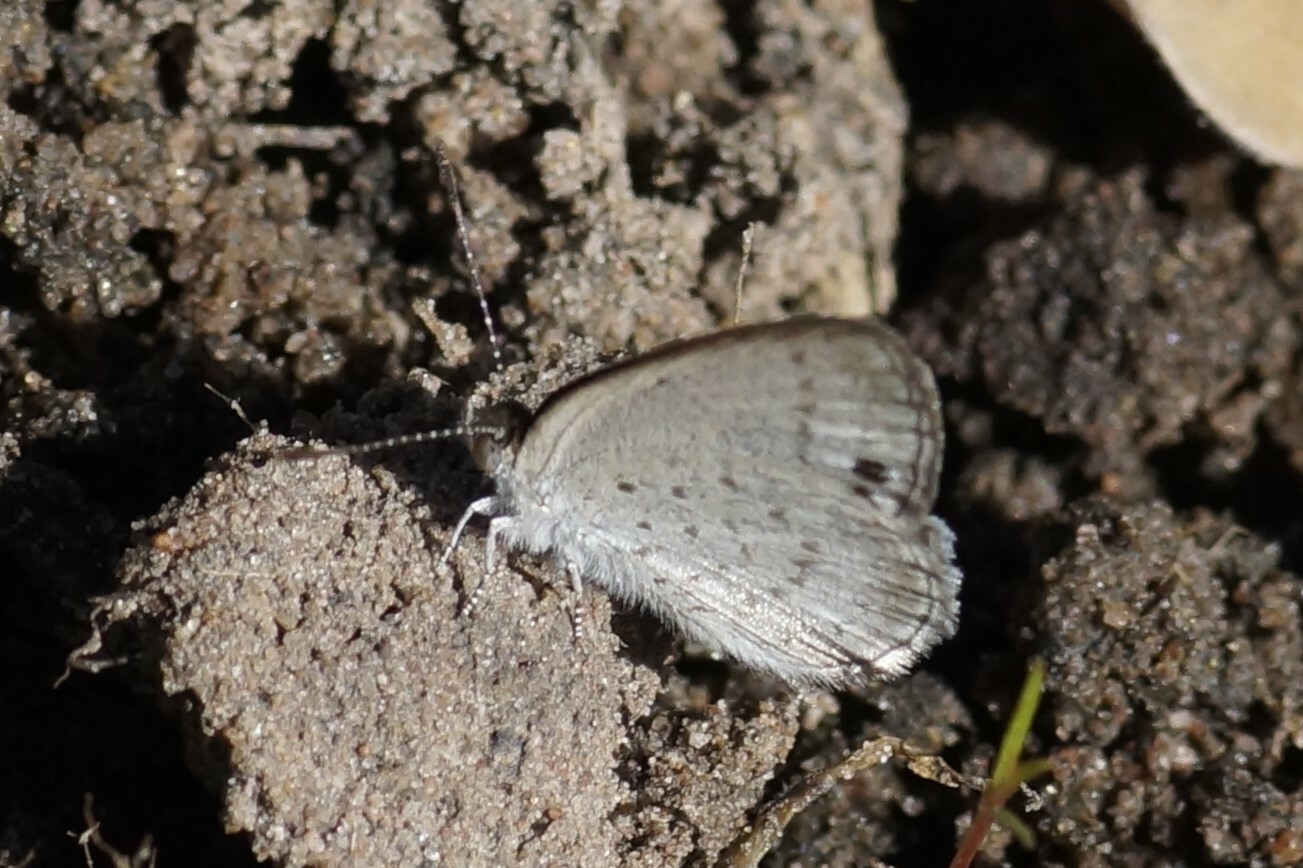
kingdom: Animalia
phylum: Arthropoda
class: Insecta
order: Lepidoptera
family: Lycaenidae
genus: Candalides
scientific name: Candalides
